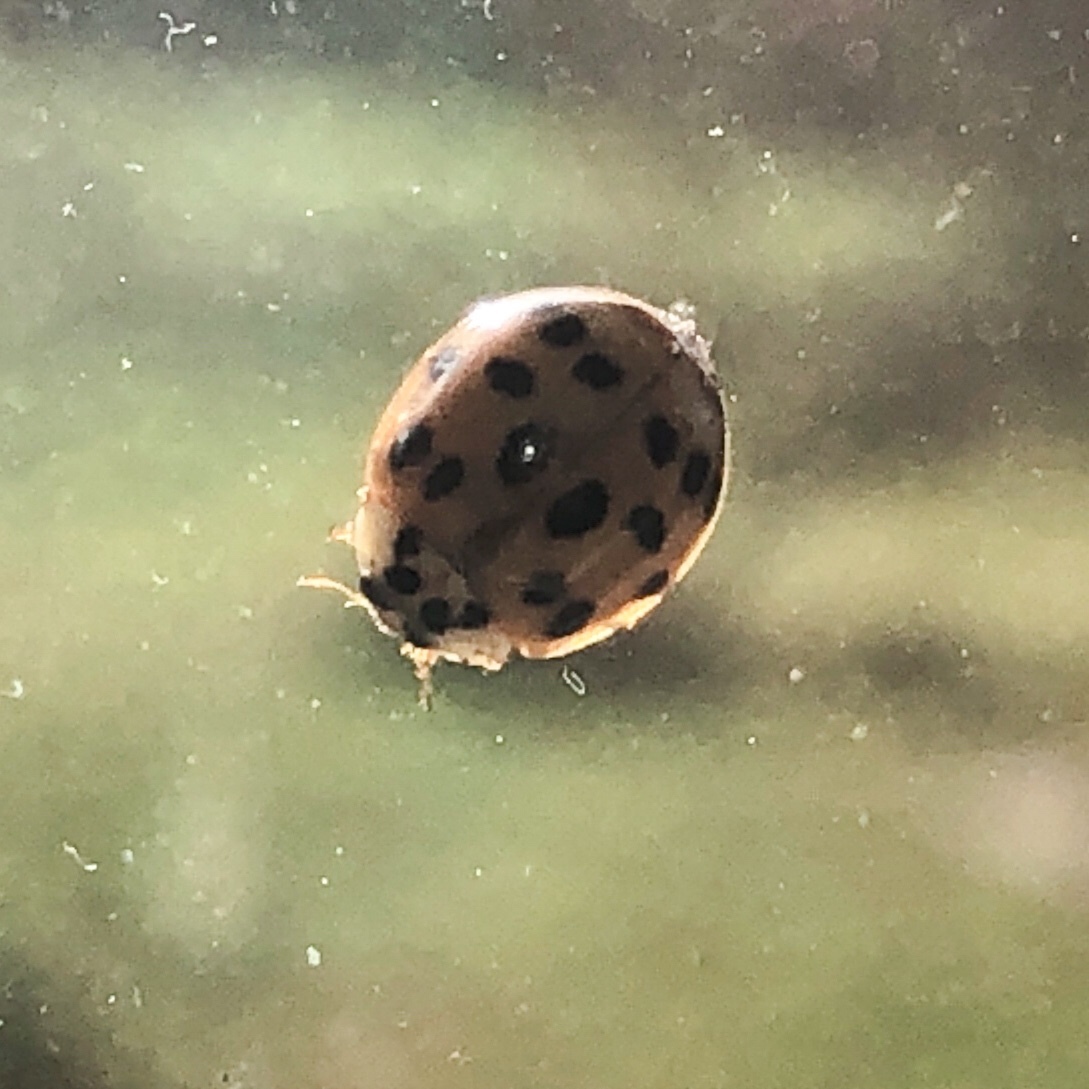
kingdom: Animalia
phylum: Arthropoda
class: Insecta
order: Coleoptera
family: Coccinellidae
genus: Harmonia
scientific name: Harmonia axyridis
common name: Harlequin ladybird
